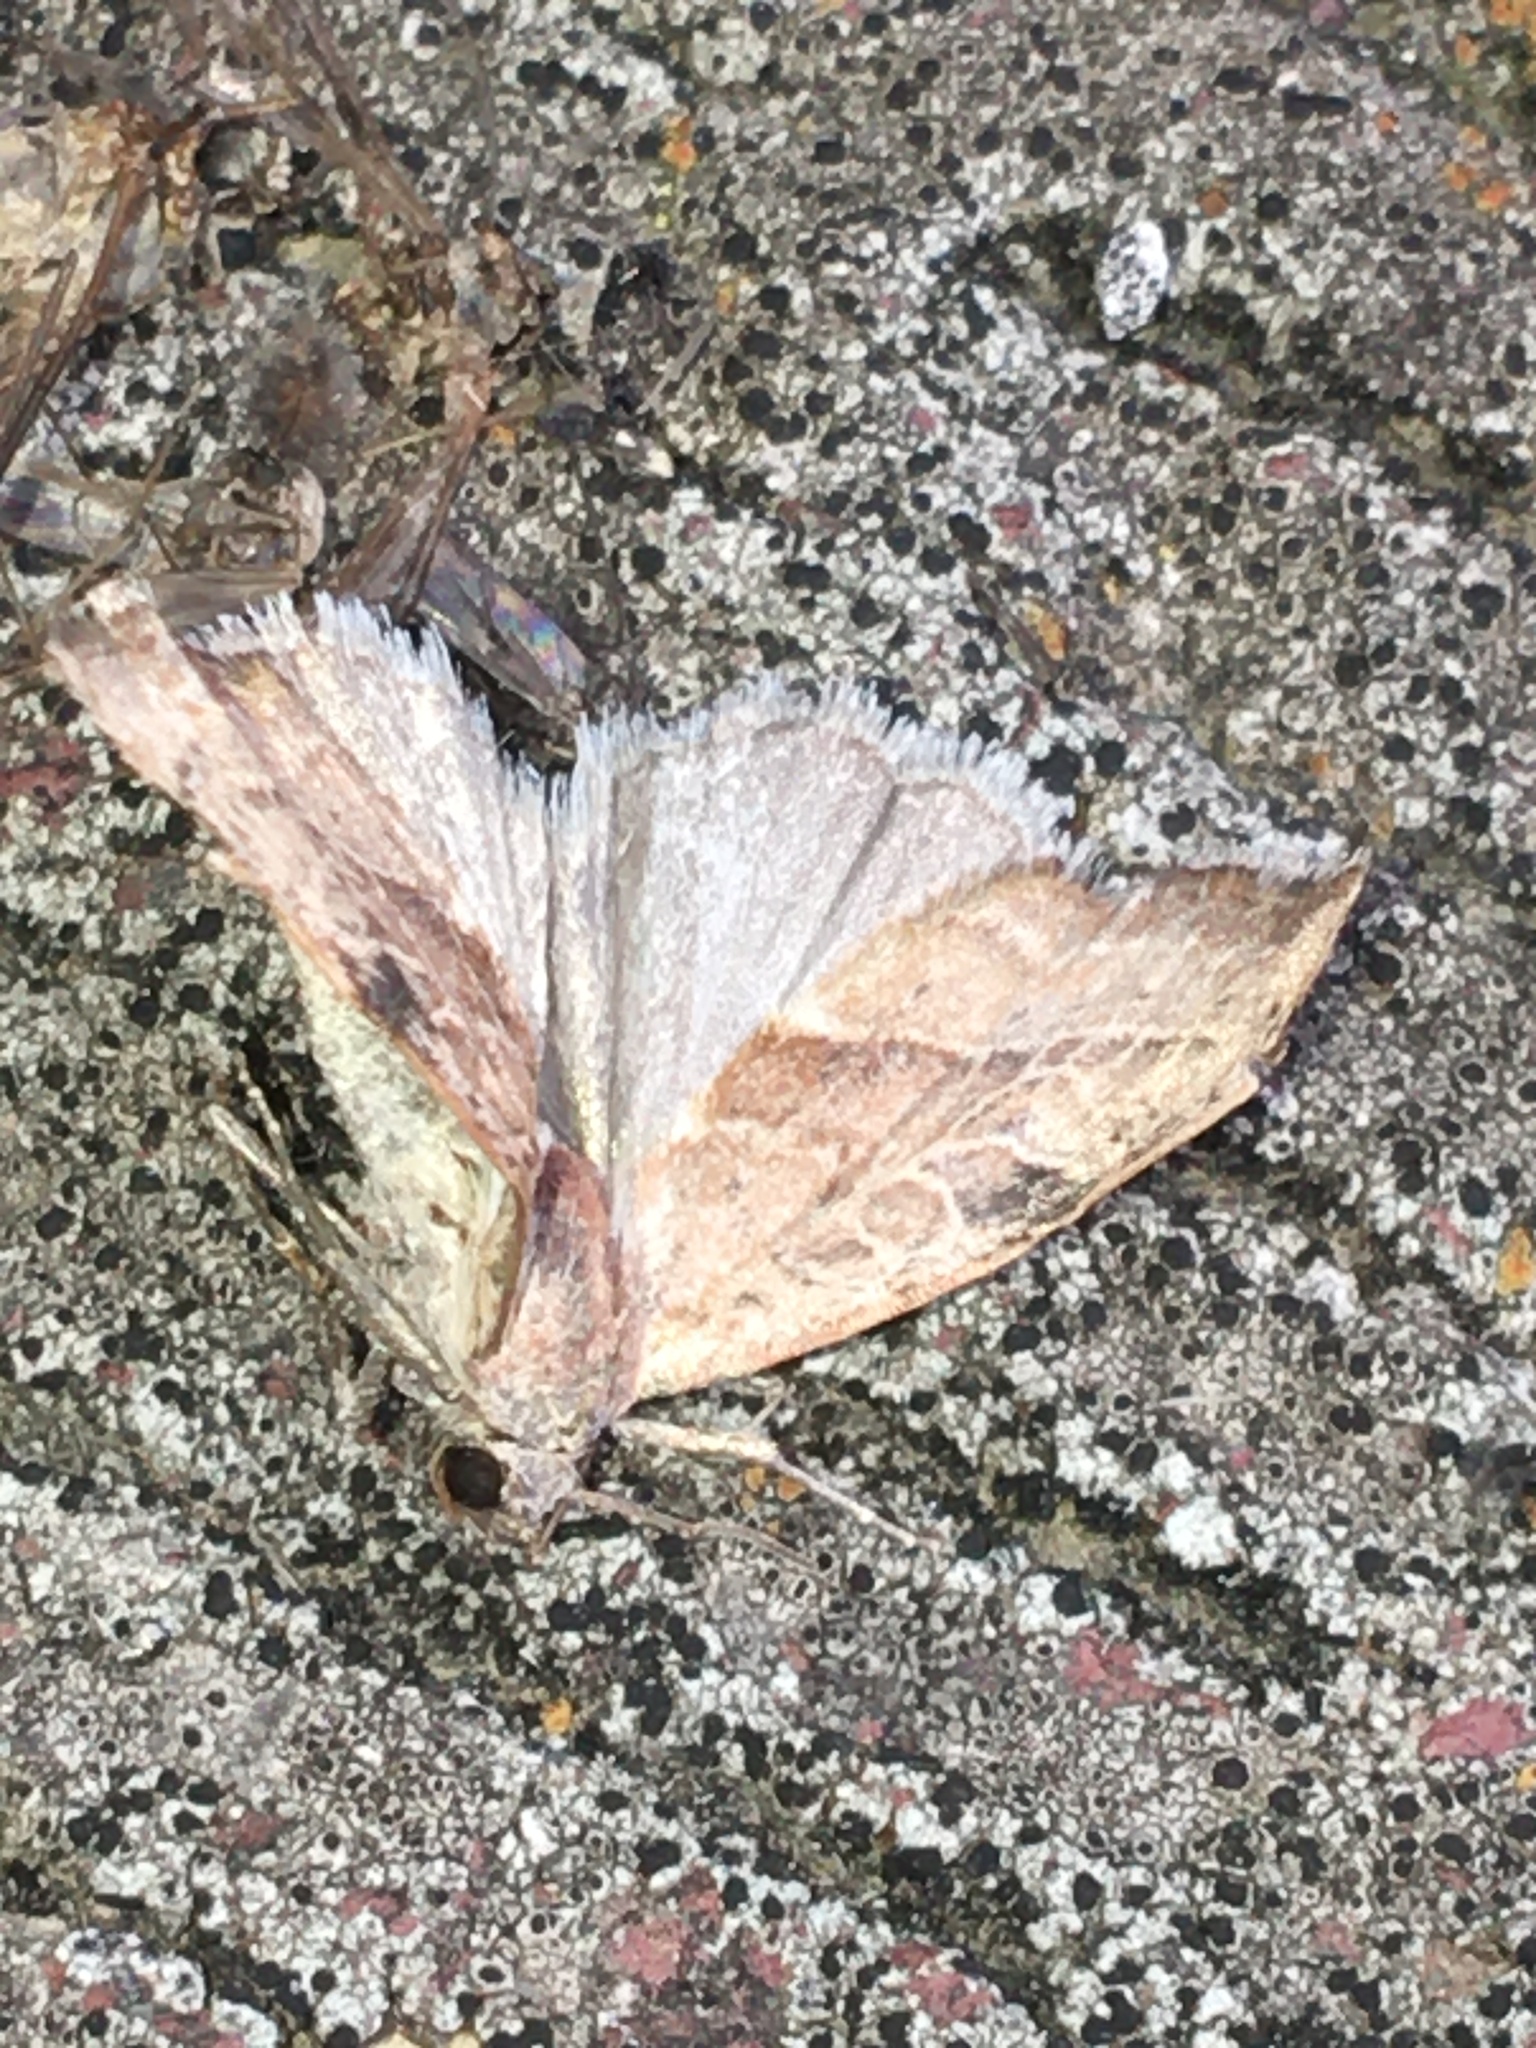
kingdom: Animalia
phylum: Arthropoda
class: Insecta
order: Lepidoptera
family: Noctuidae
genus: Galgula
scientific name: Galgula partita
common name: Wedgeling
